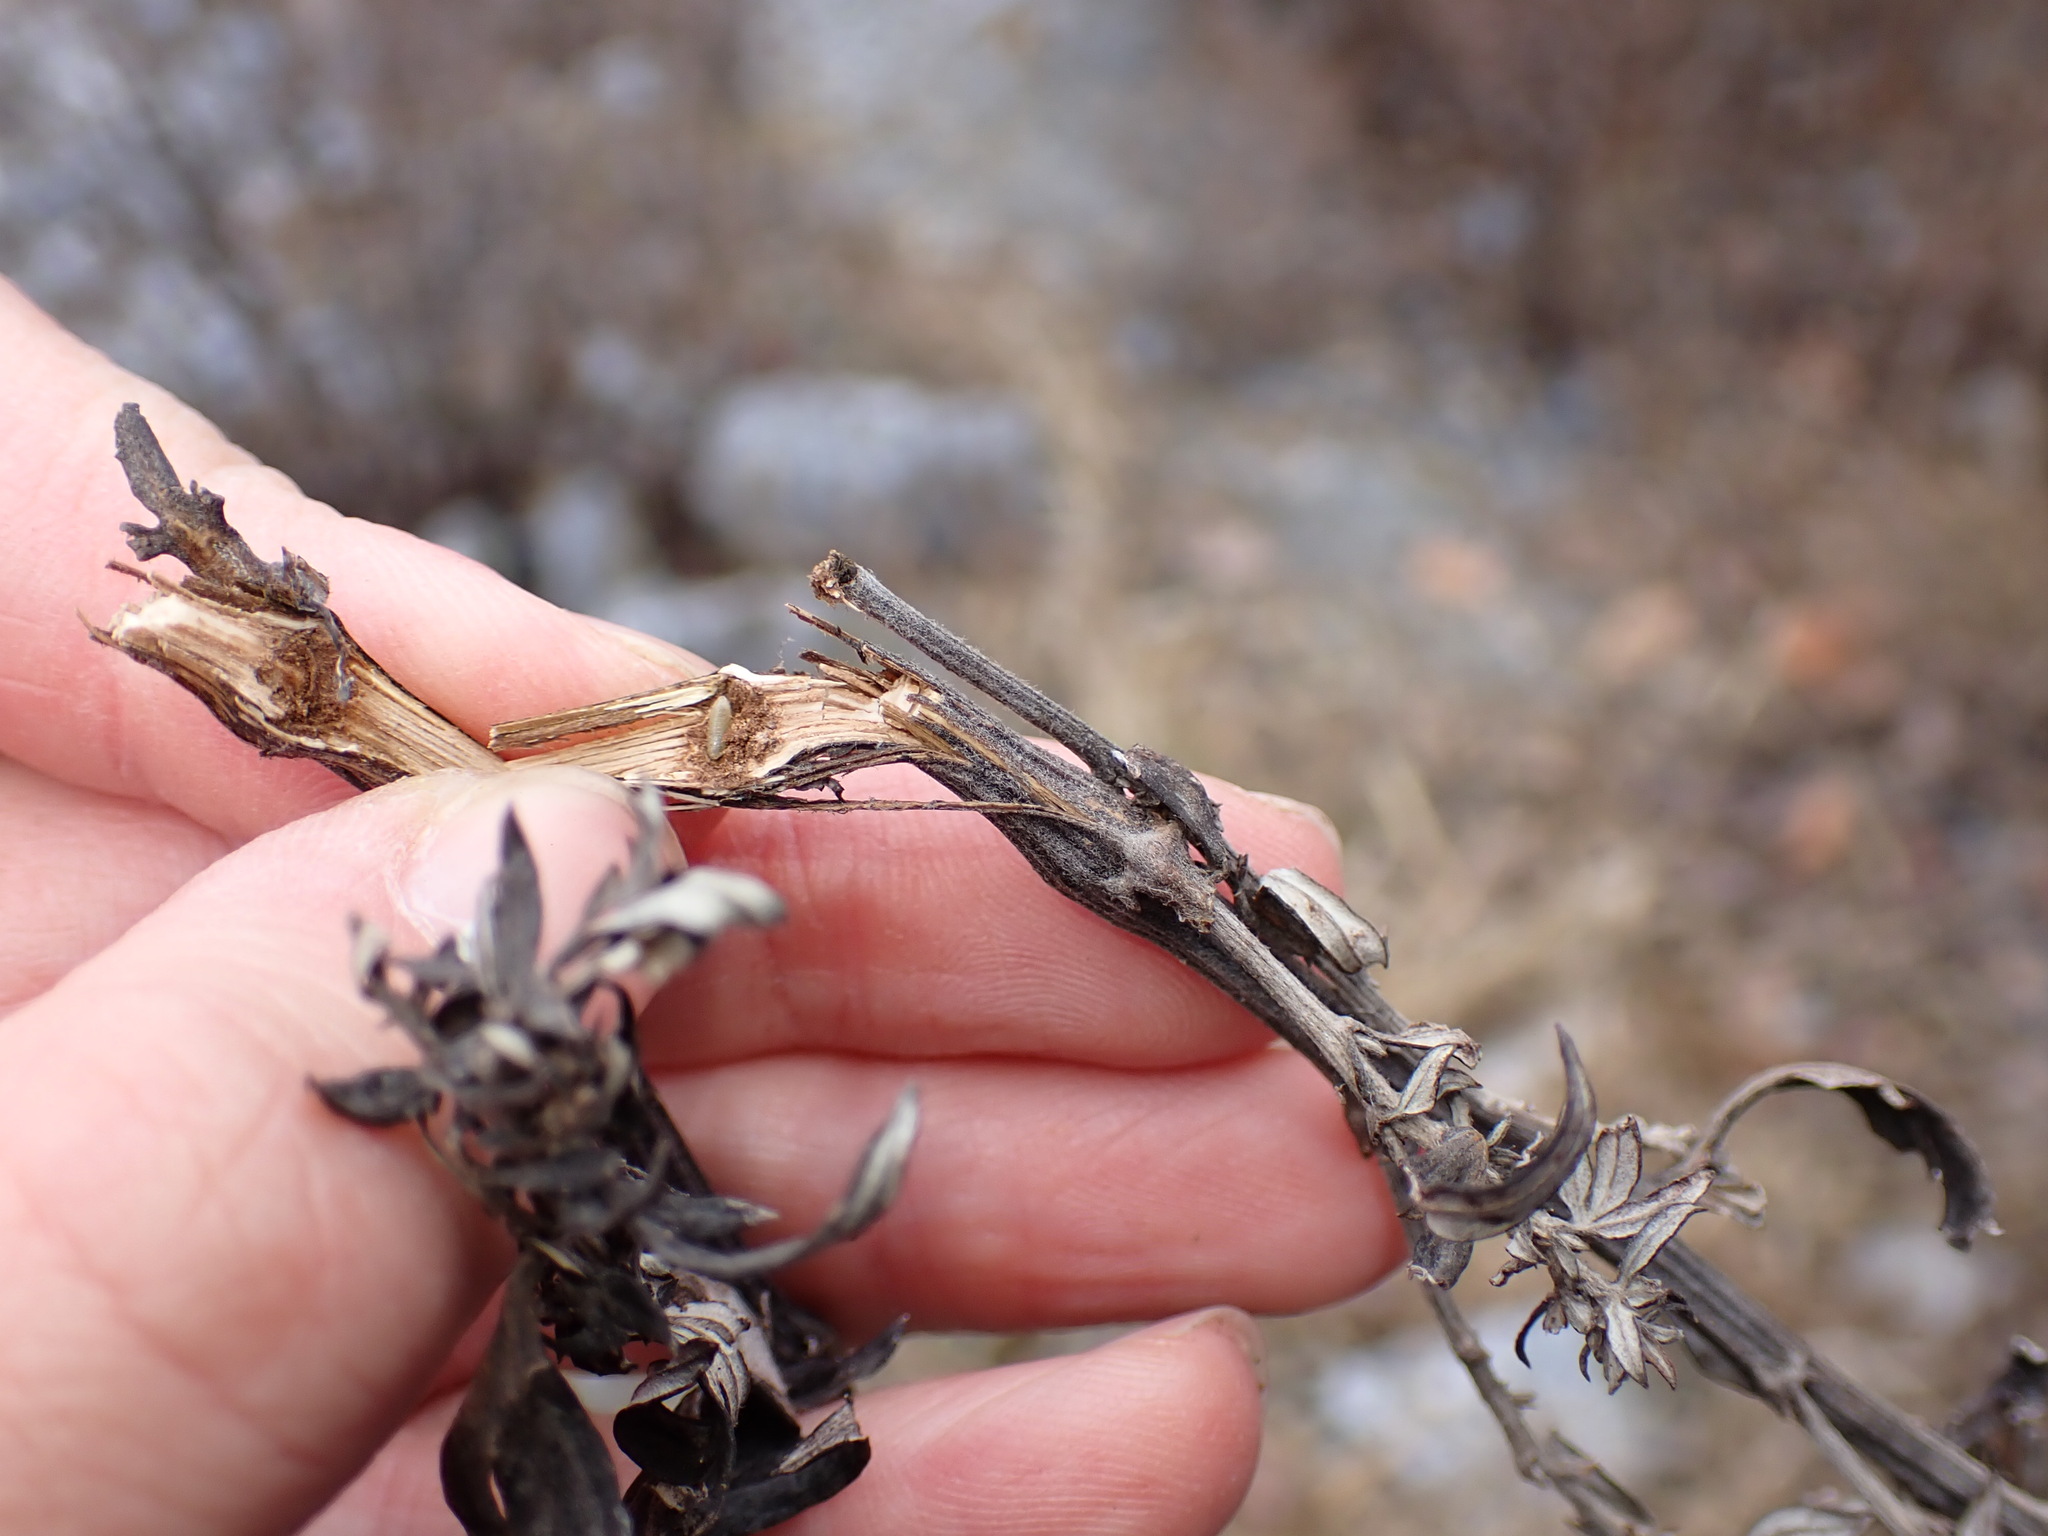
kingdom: Plantae
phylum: Tracheophyta
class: Magnoliopsida
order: Asterales
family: Asteraceae
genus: Artemisia
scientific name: Artemisia vulgaris
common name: Mugwort
